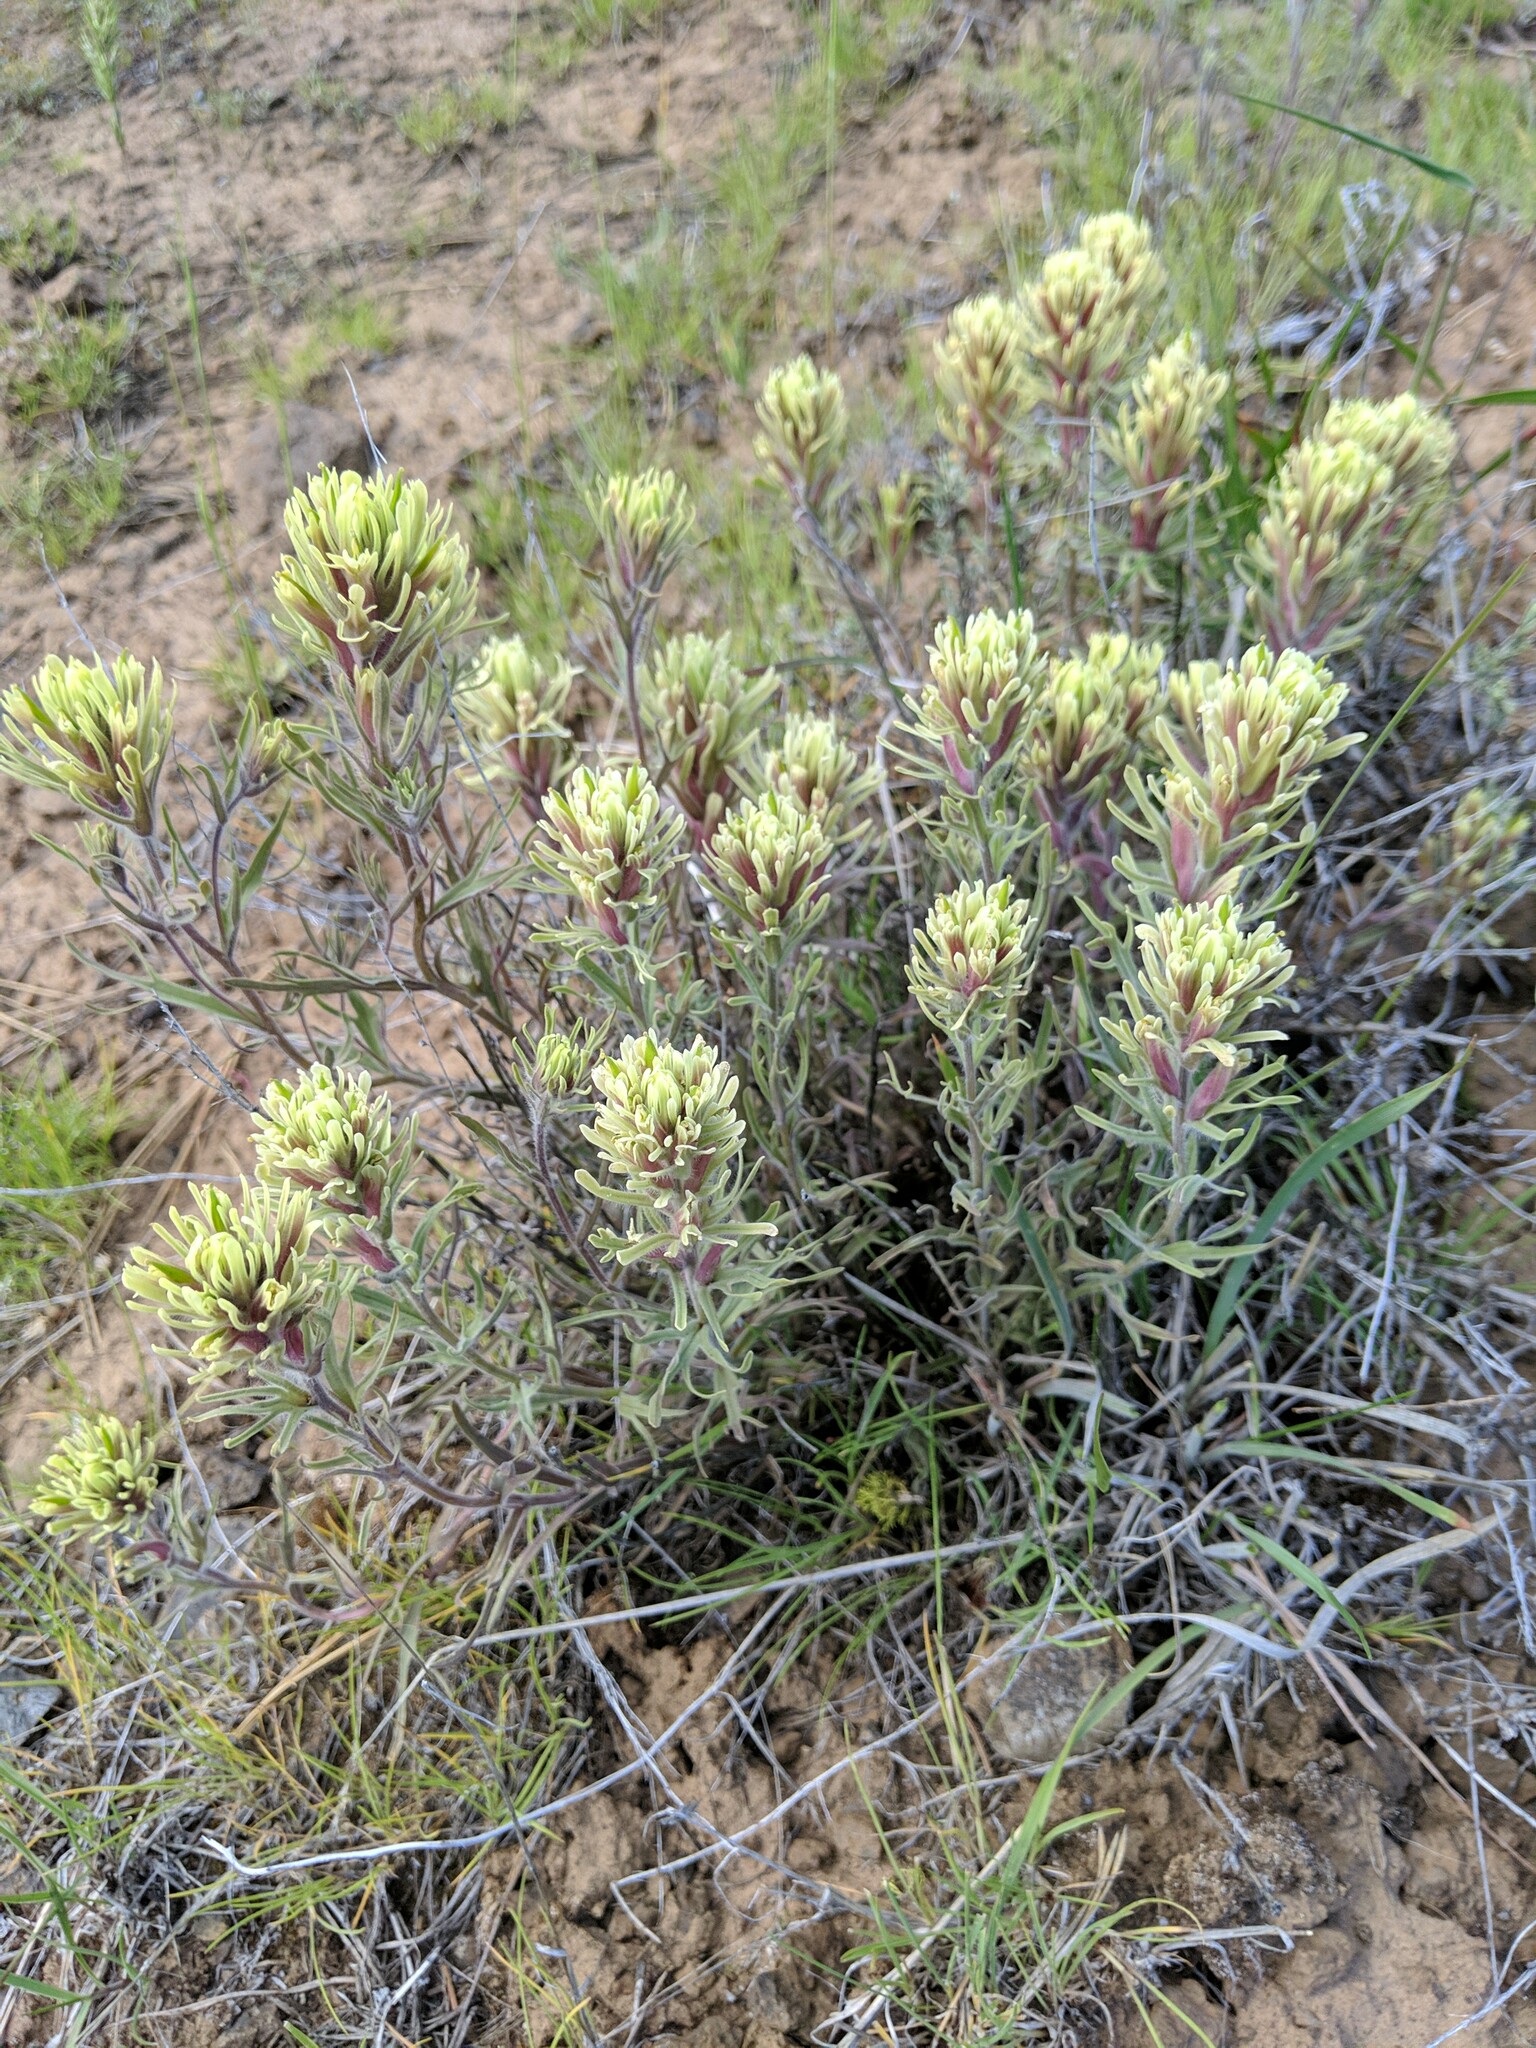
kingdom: Plantae
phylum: Tracheophyta
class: Magnoliopsida
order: Lamiales
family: Orobanchaceae
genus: Castilleja
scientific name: Castilleja thompsonii
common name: Thompson's paintbrush
